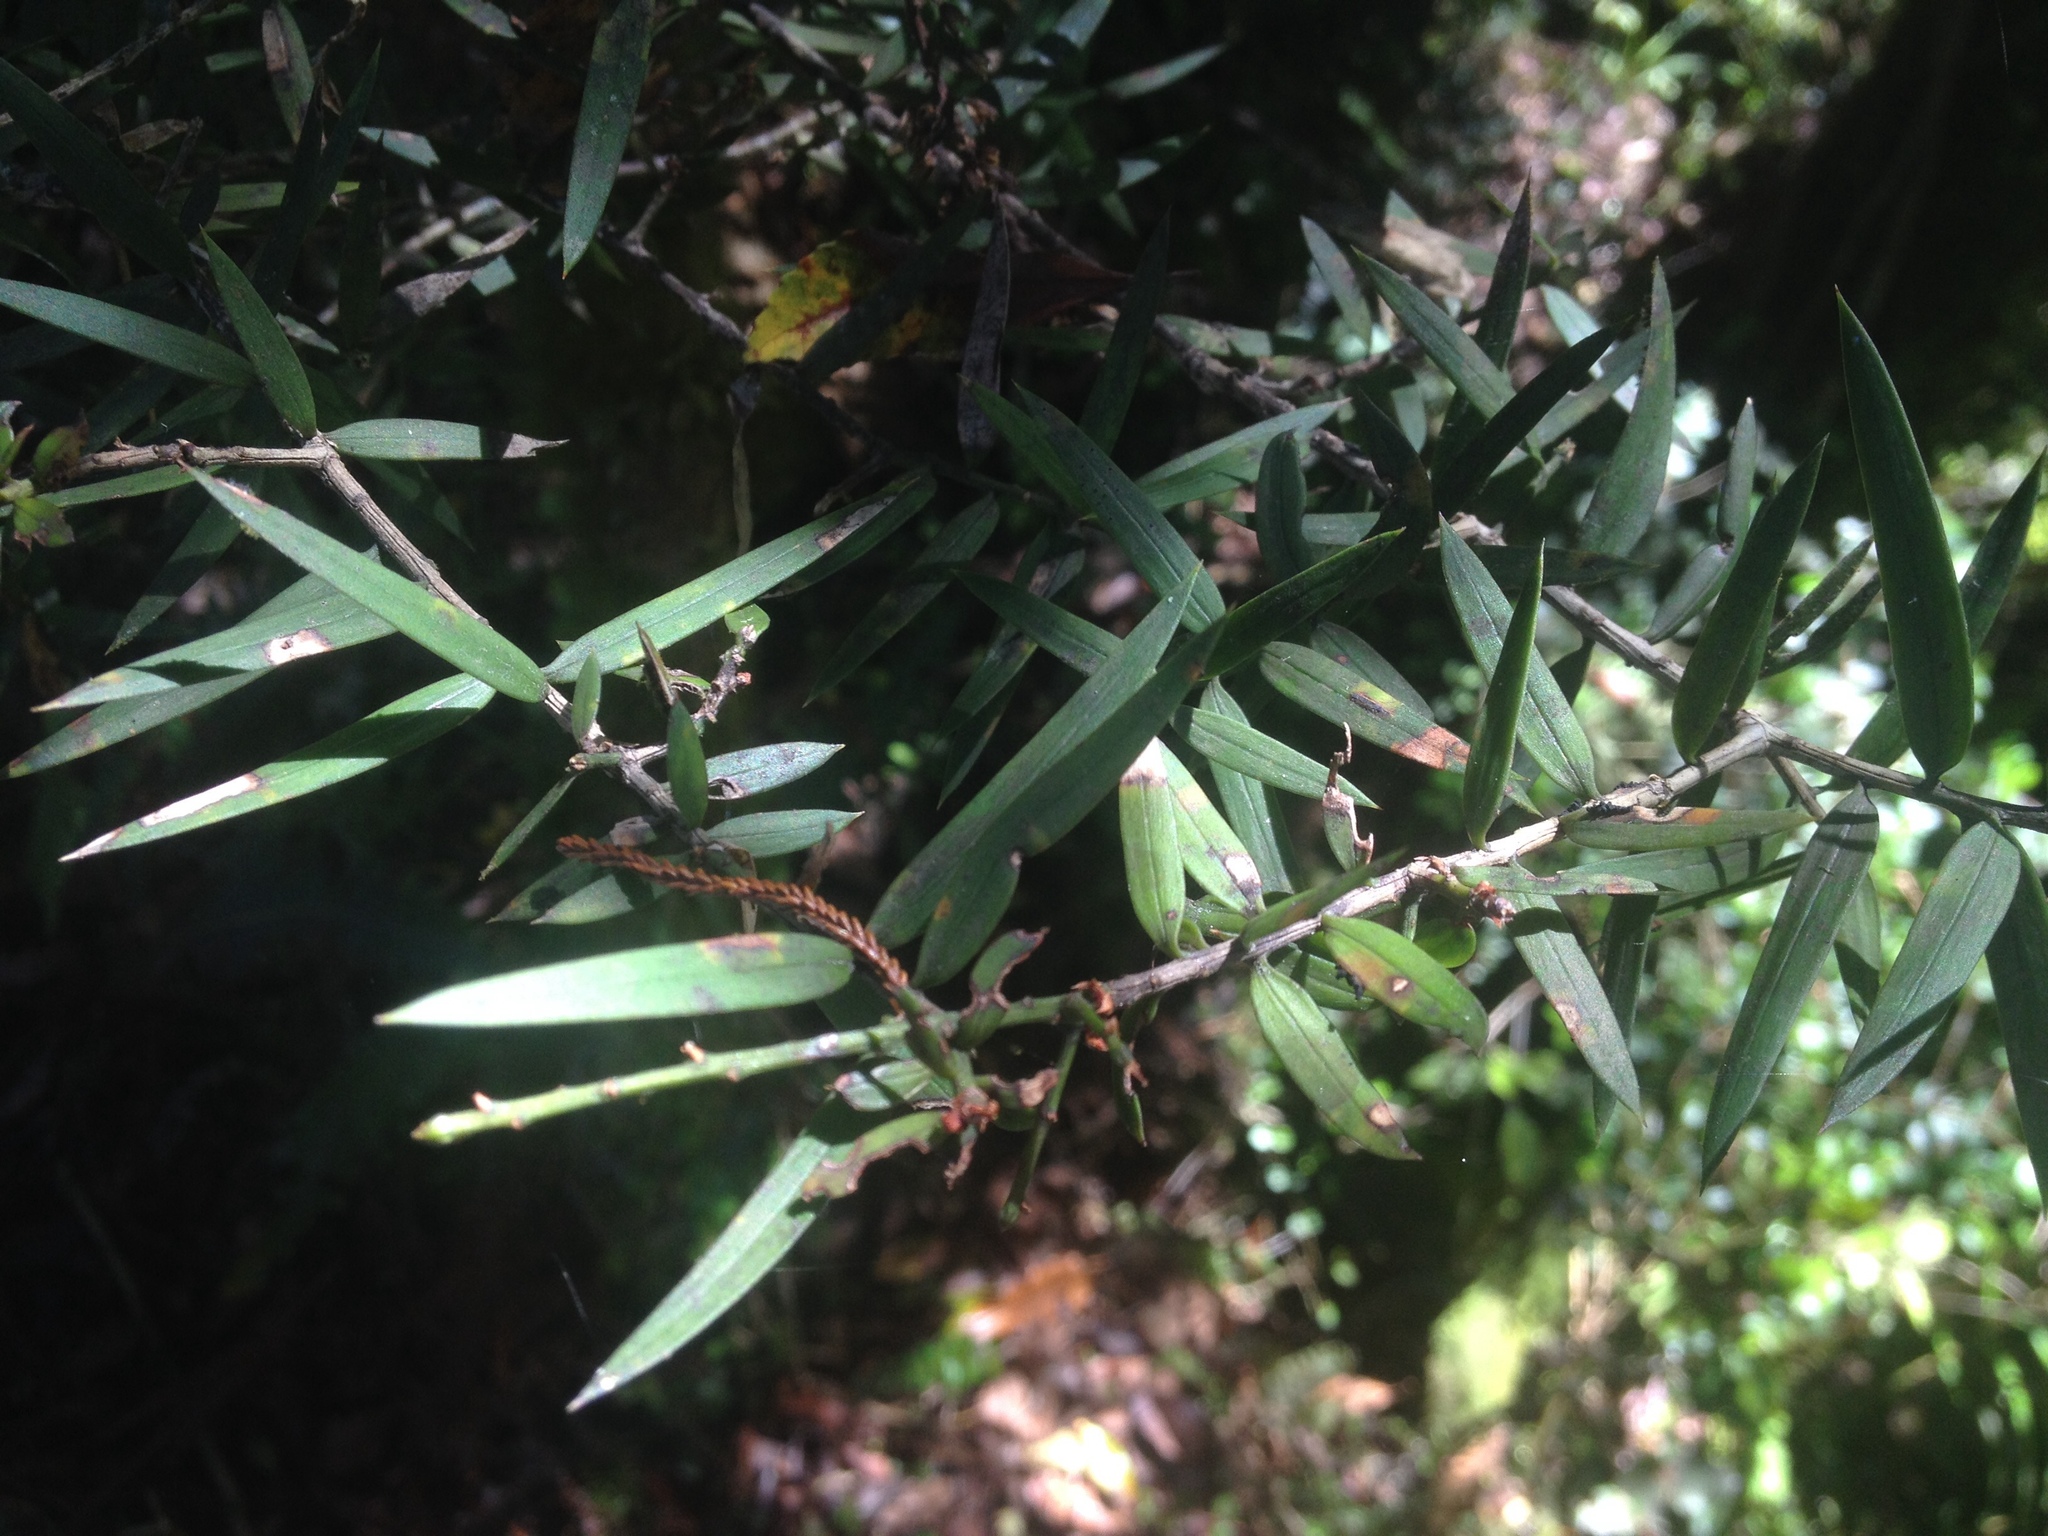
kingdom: Plantae
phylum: Tracheophyta
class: Pinopsida
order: Pinales
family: Podocarpaceae
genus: Podocarpus
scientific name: Podocarpus laetus
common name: Hall's totara
